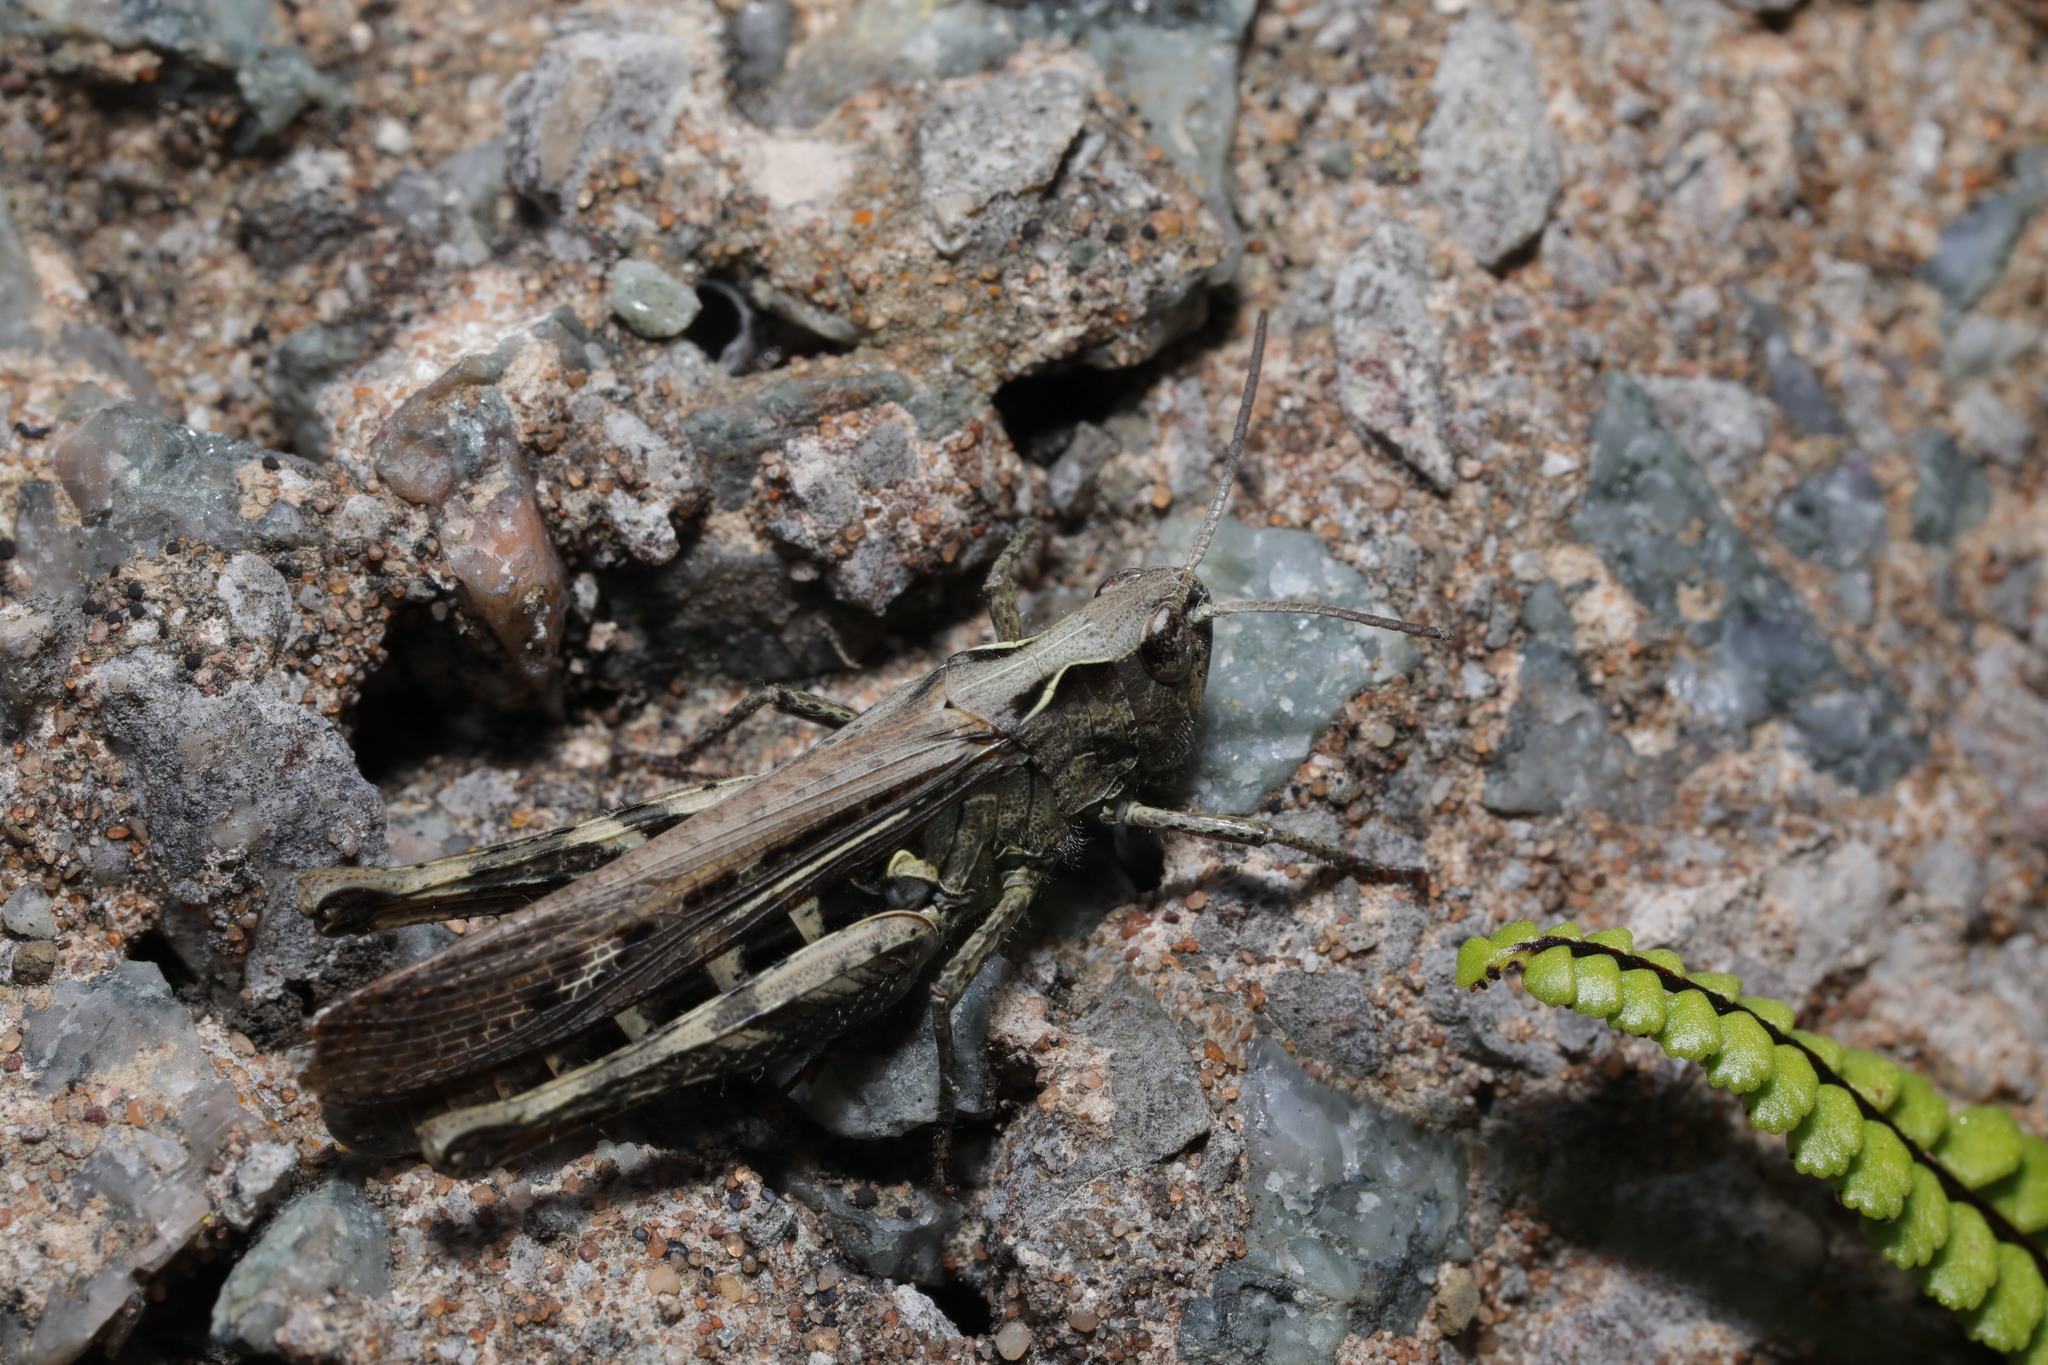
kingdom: Animalia
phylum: Arthropoda
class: Insecta
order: Orthoptera
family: Acrididae
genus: Chorthippus
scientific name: Chorthippus brunneus
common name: Field grasshopper
